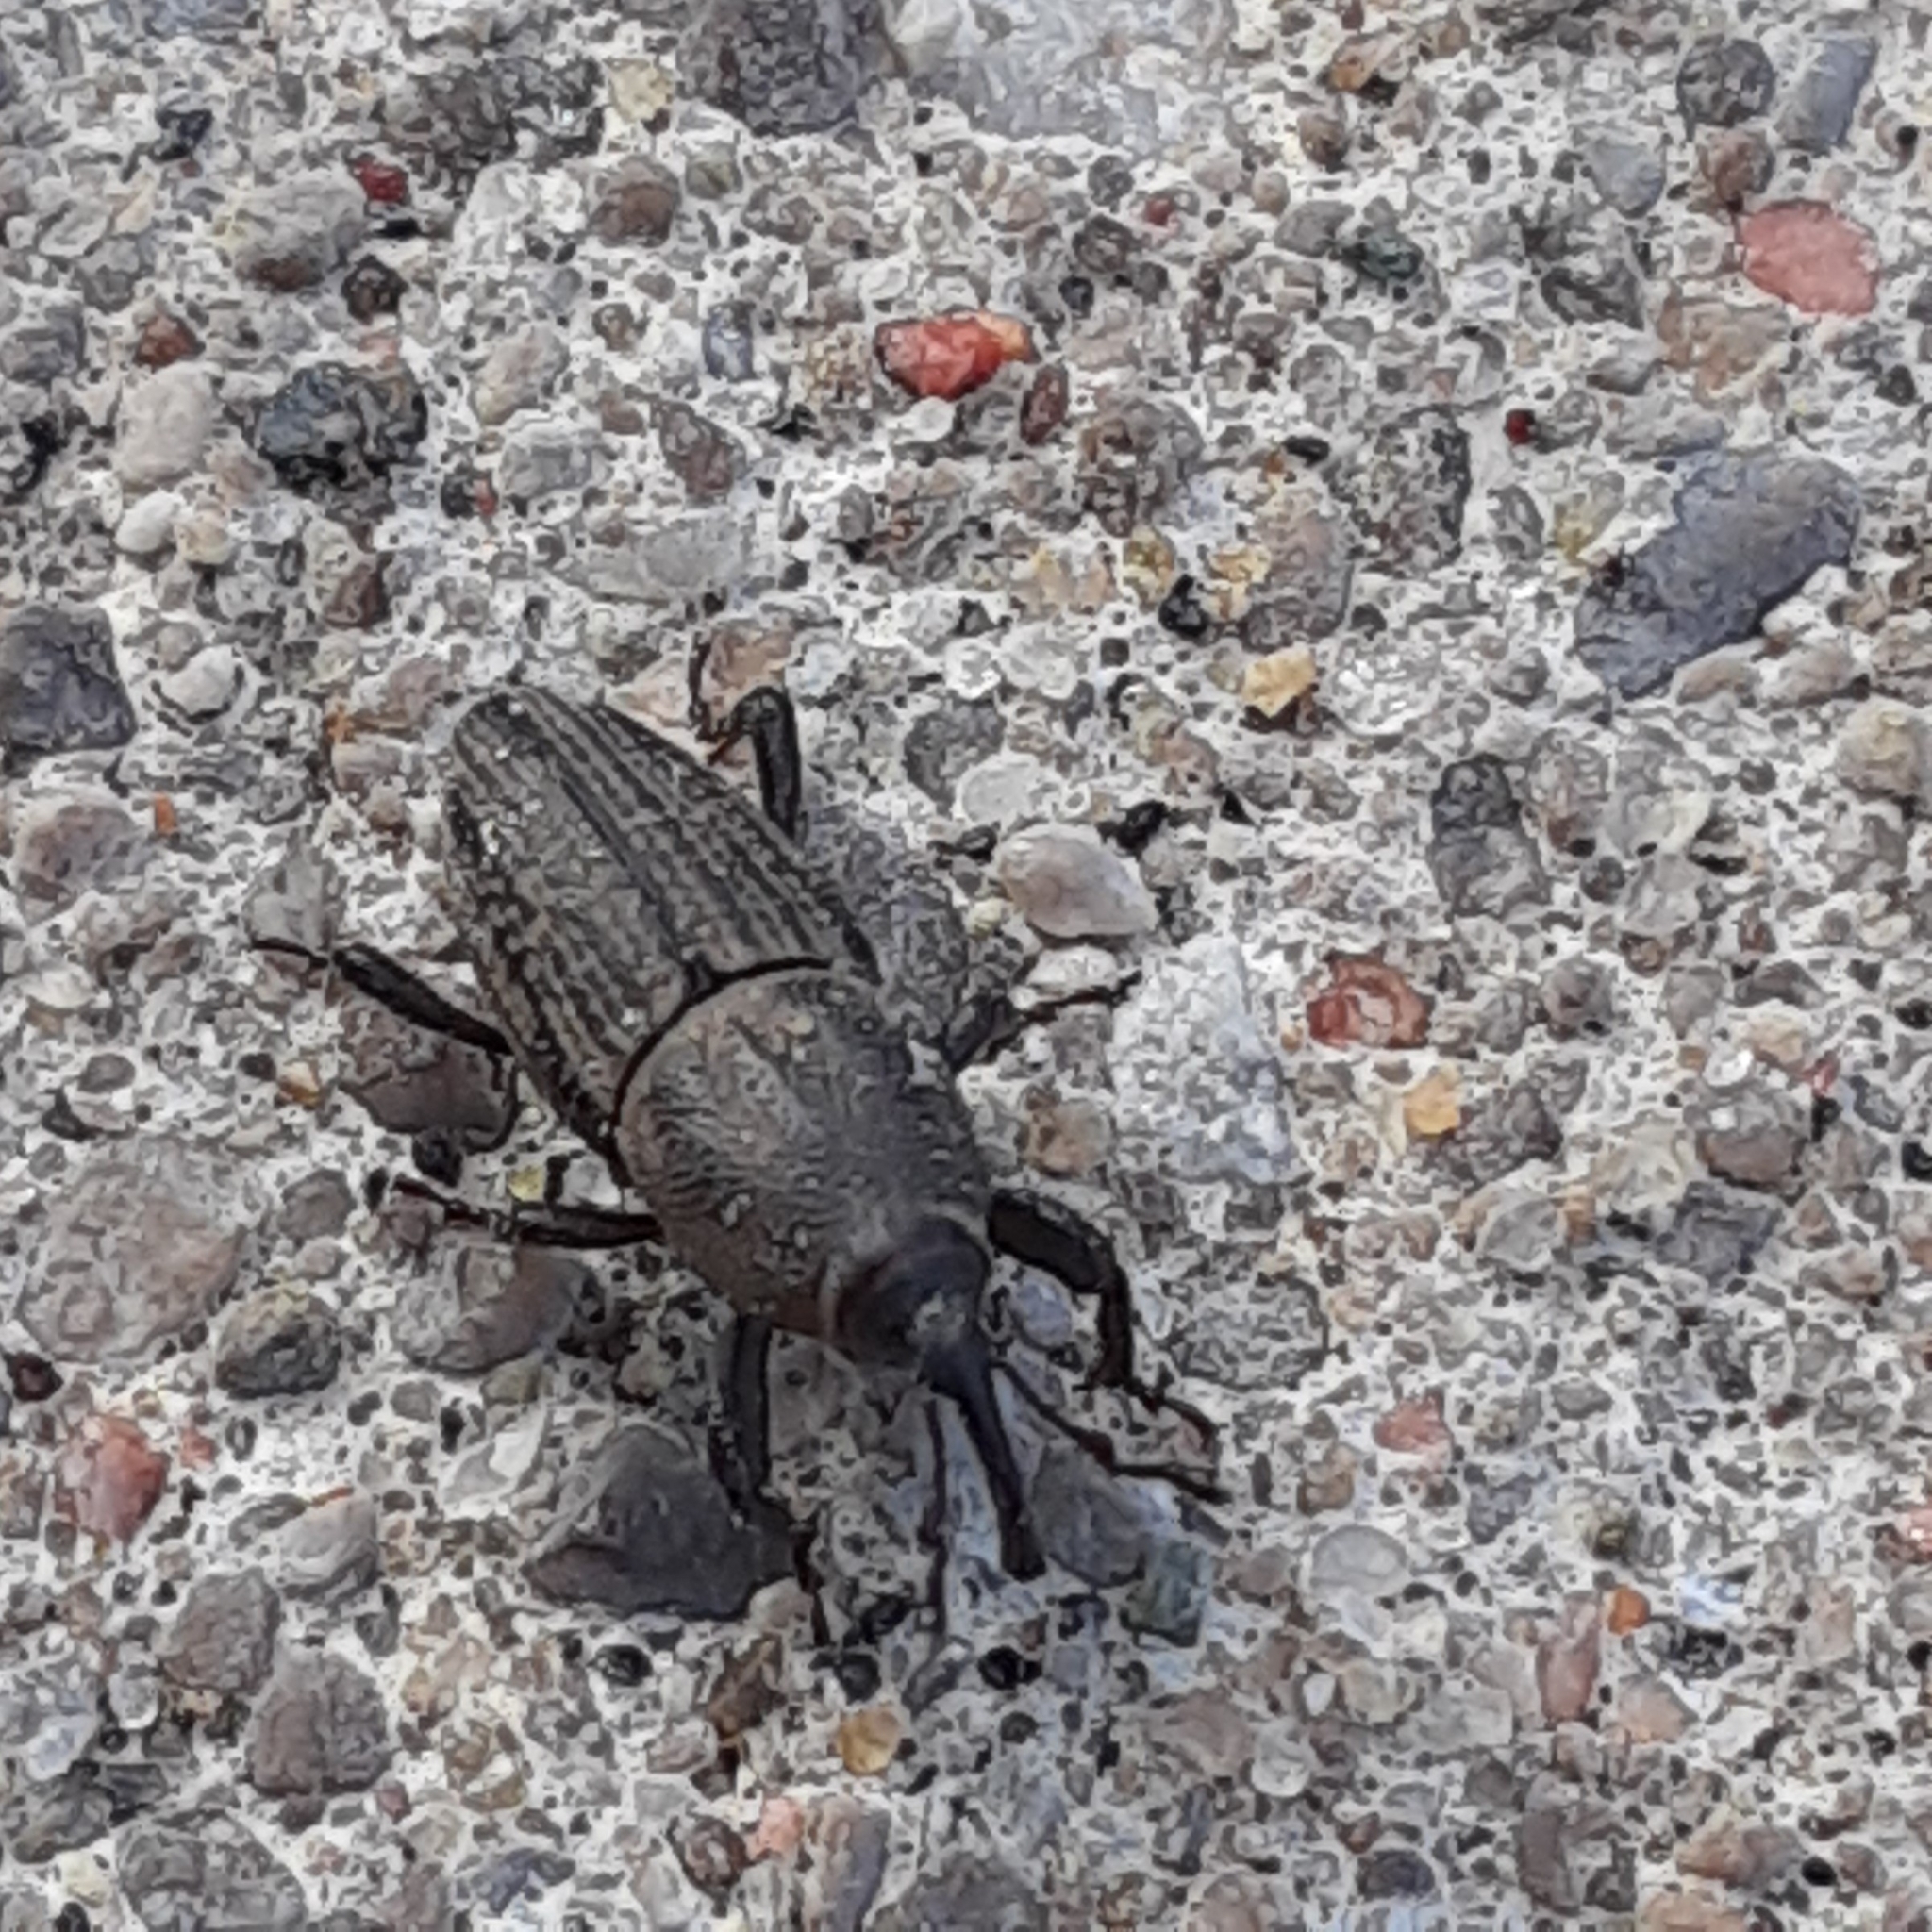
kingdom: Animalia
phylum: Arthropoda
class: Insecta
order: Coleoptera
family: Dryophthoridae
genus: Sphenophorus
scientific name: Sphenophorus interstitialis
